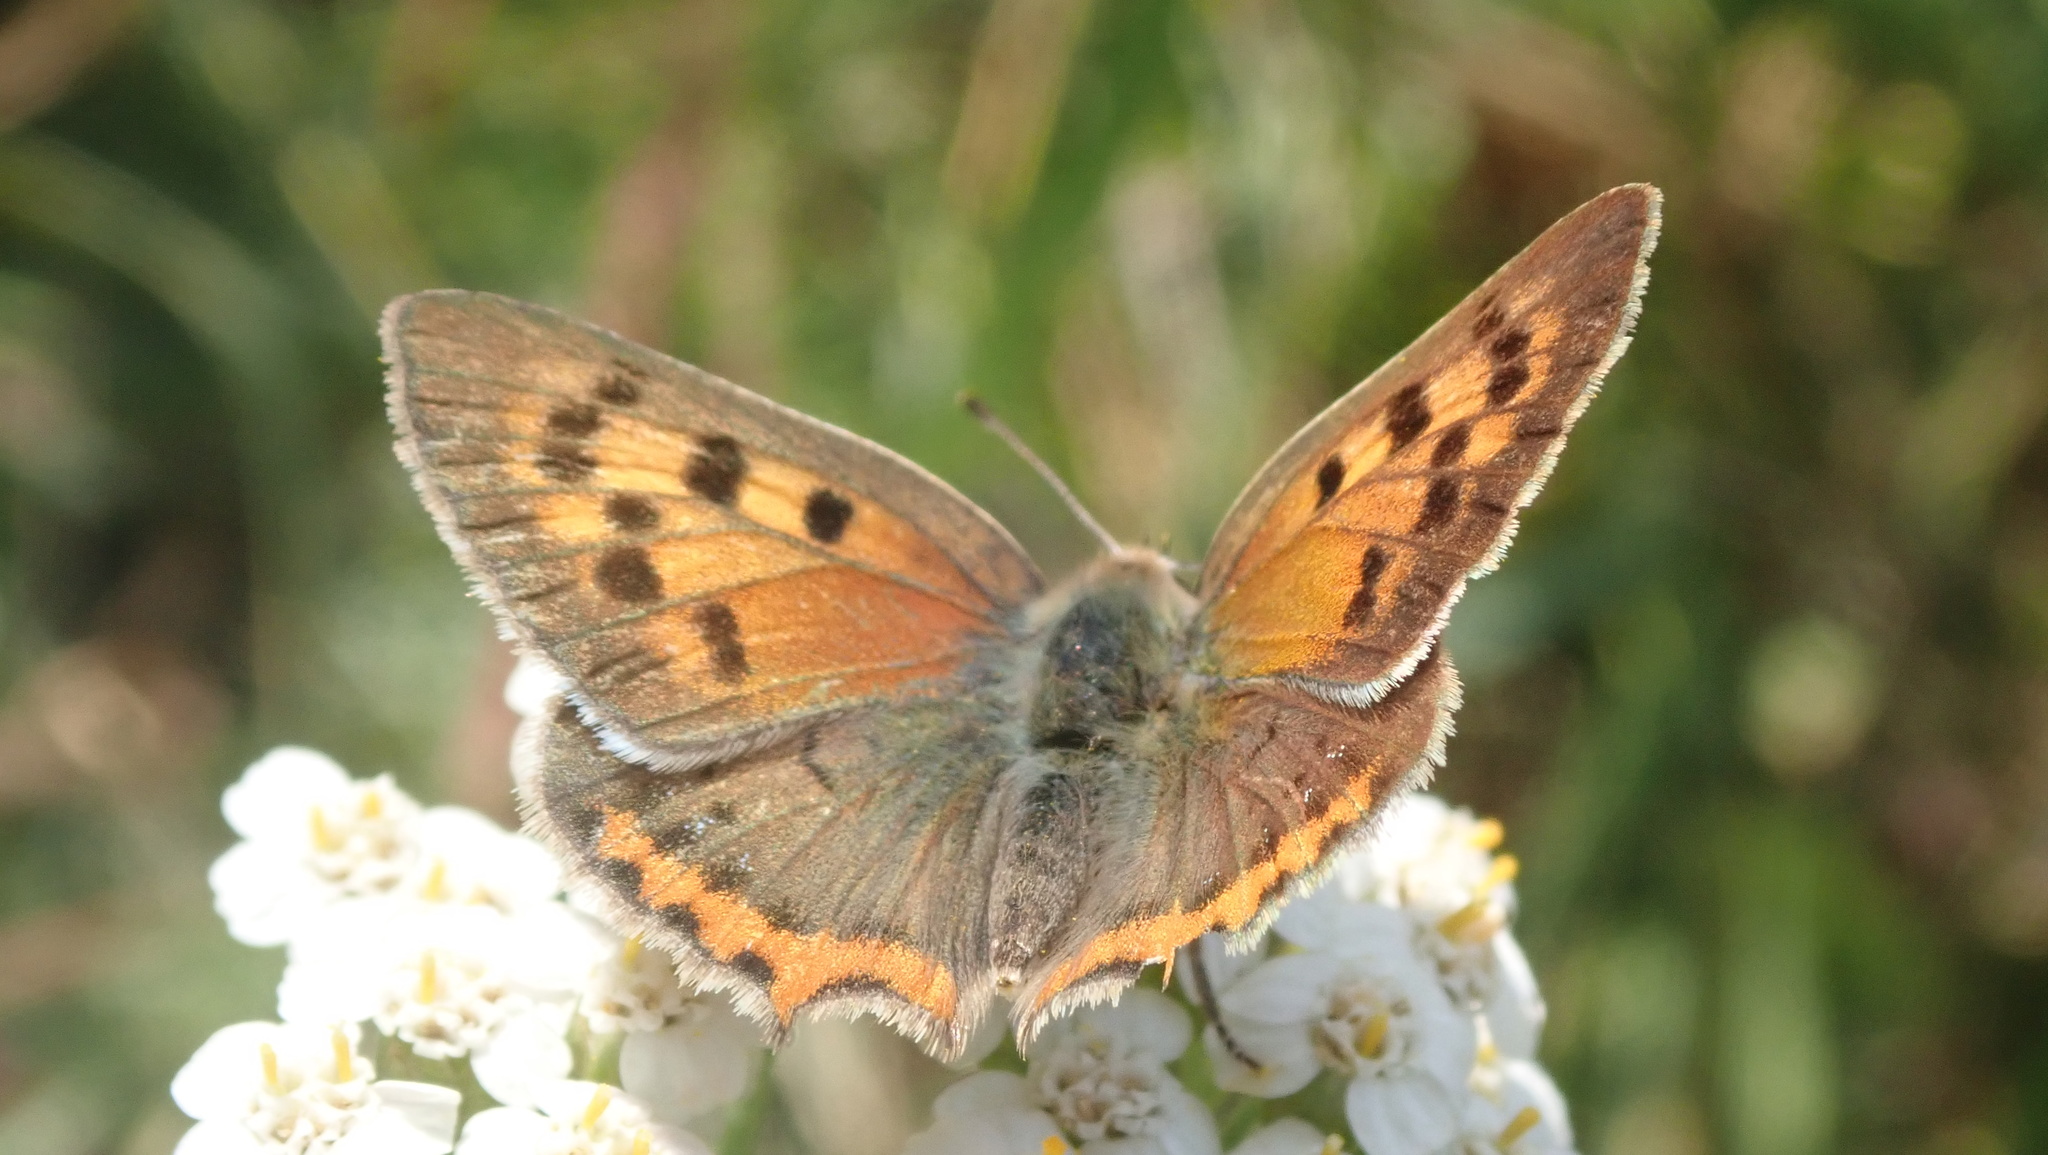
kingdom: Animalia
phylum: Arthropoda
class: Insecta
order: Lepidoptera
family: Lycaenidae
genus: Lycaena
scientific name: Lycaena phlaeas
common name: Small copper
